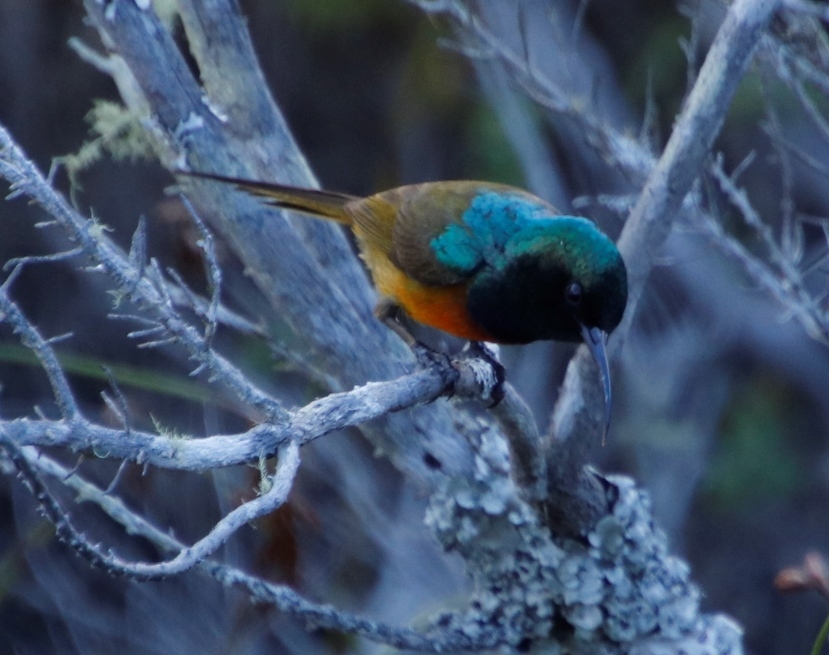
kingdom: Animalia
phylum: Chordata
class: Aves
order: Passeriformes
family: Nectariniidae
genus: Anthobaphes
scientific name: Anthobaphes violacea
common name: Orange-breasted sunbird
